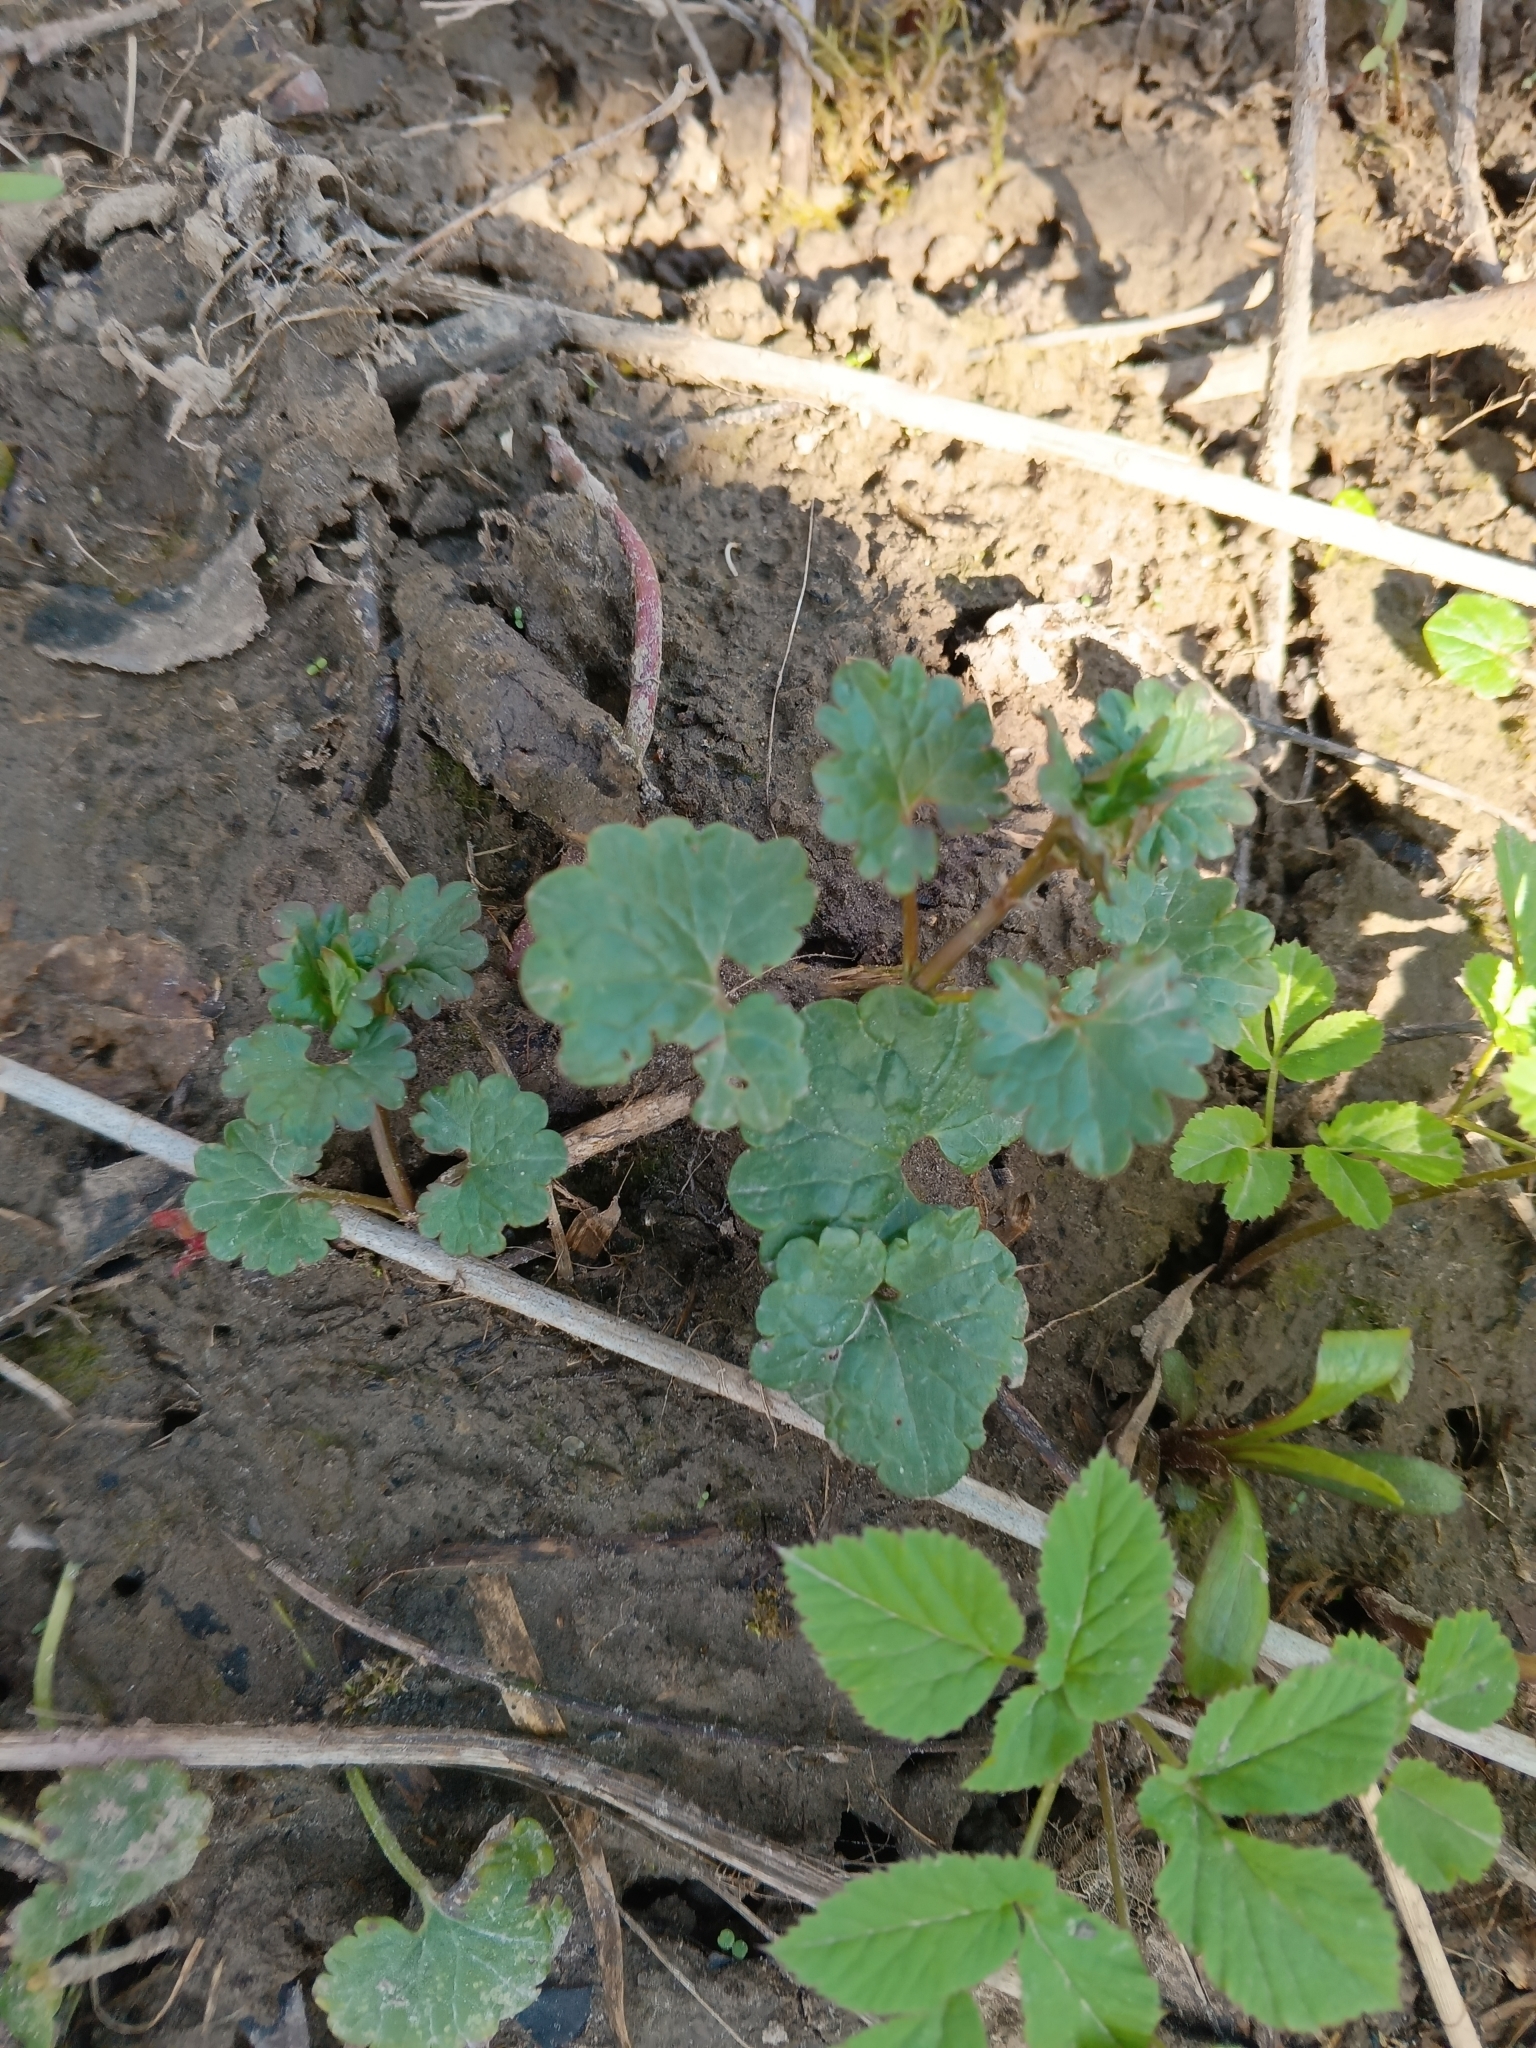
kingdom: Plantae
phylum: Tracheophyta
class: Magnoliopsida
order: Lamiales
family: Lamiaceae
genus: Glechoma
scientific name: Glechoma hederacea
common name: Ground ivy
